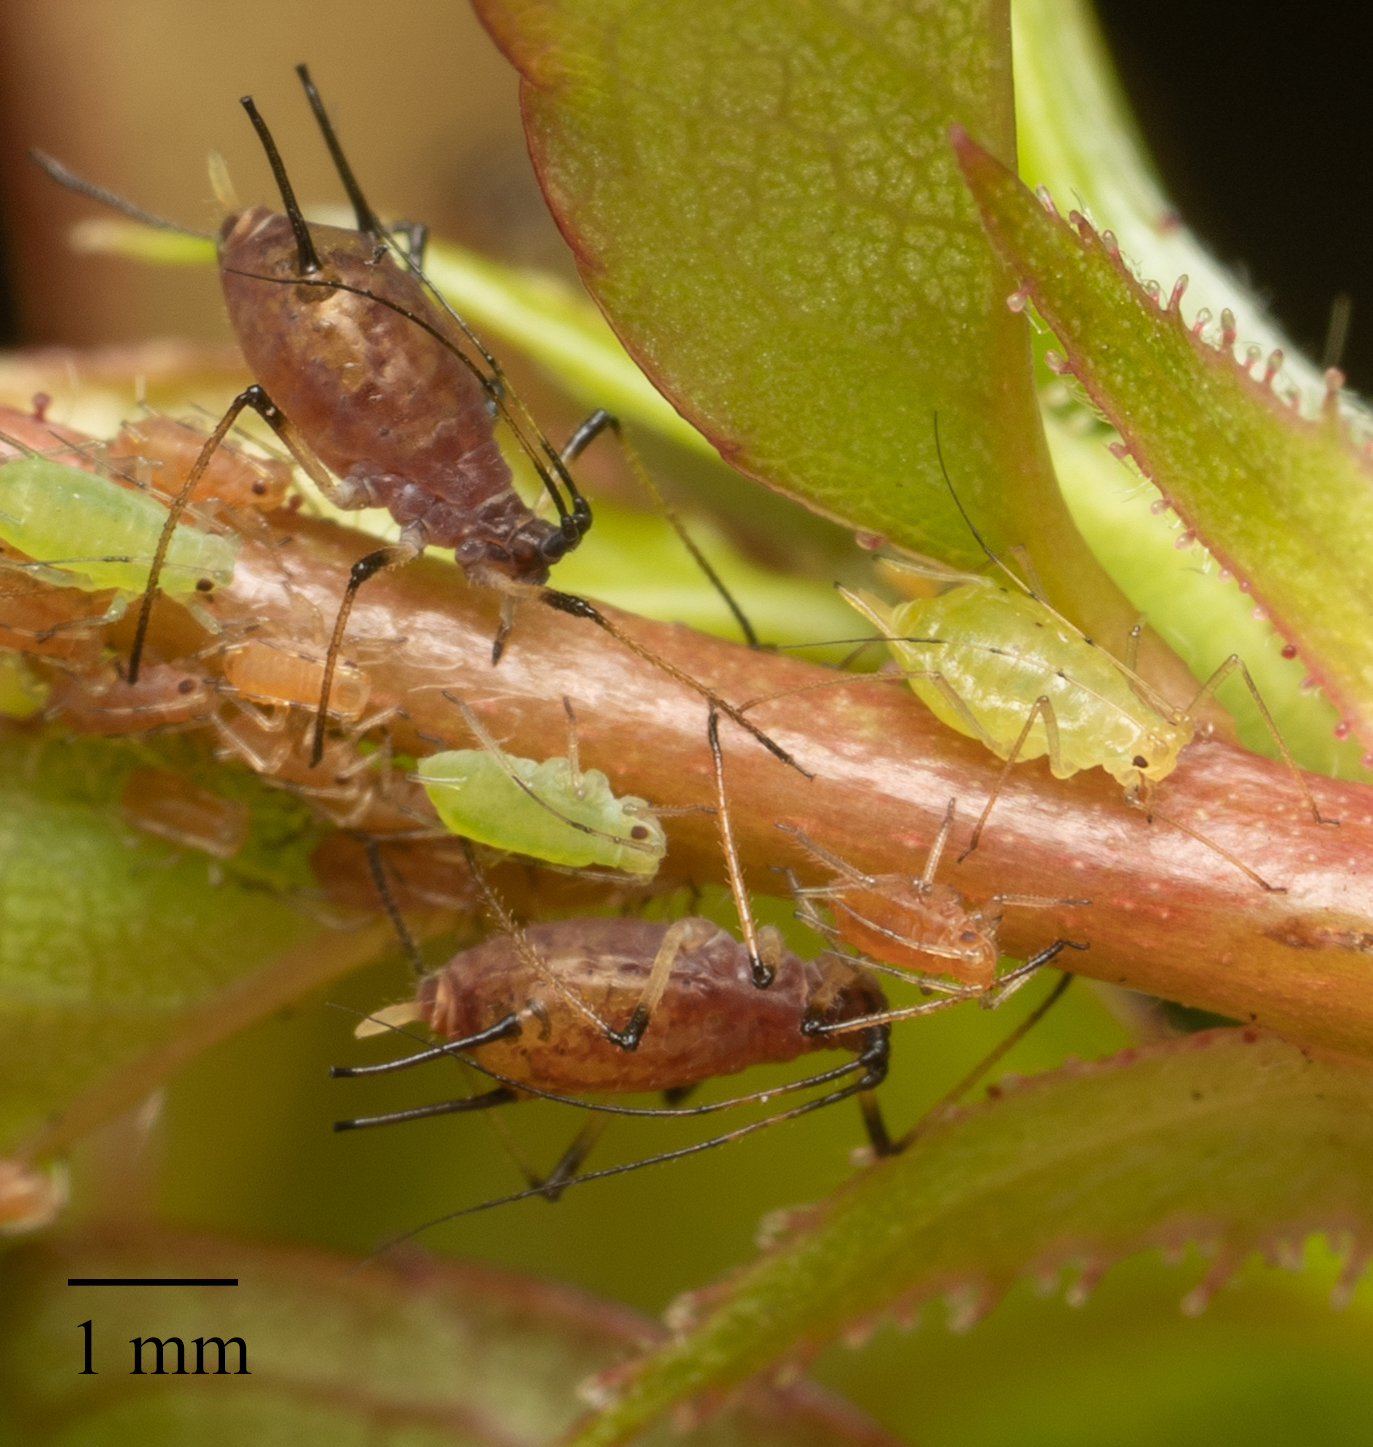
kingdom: Animalia
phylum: Arthropoda
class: Insecta
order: Hemiptera
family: Aphididae
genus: Macrosiphum
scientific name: Macrosiphum rosae
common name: Rose aphid
